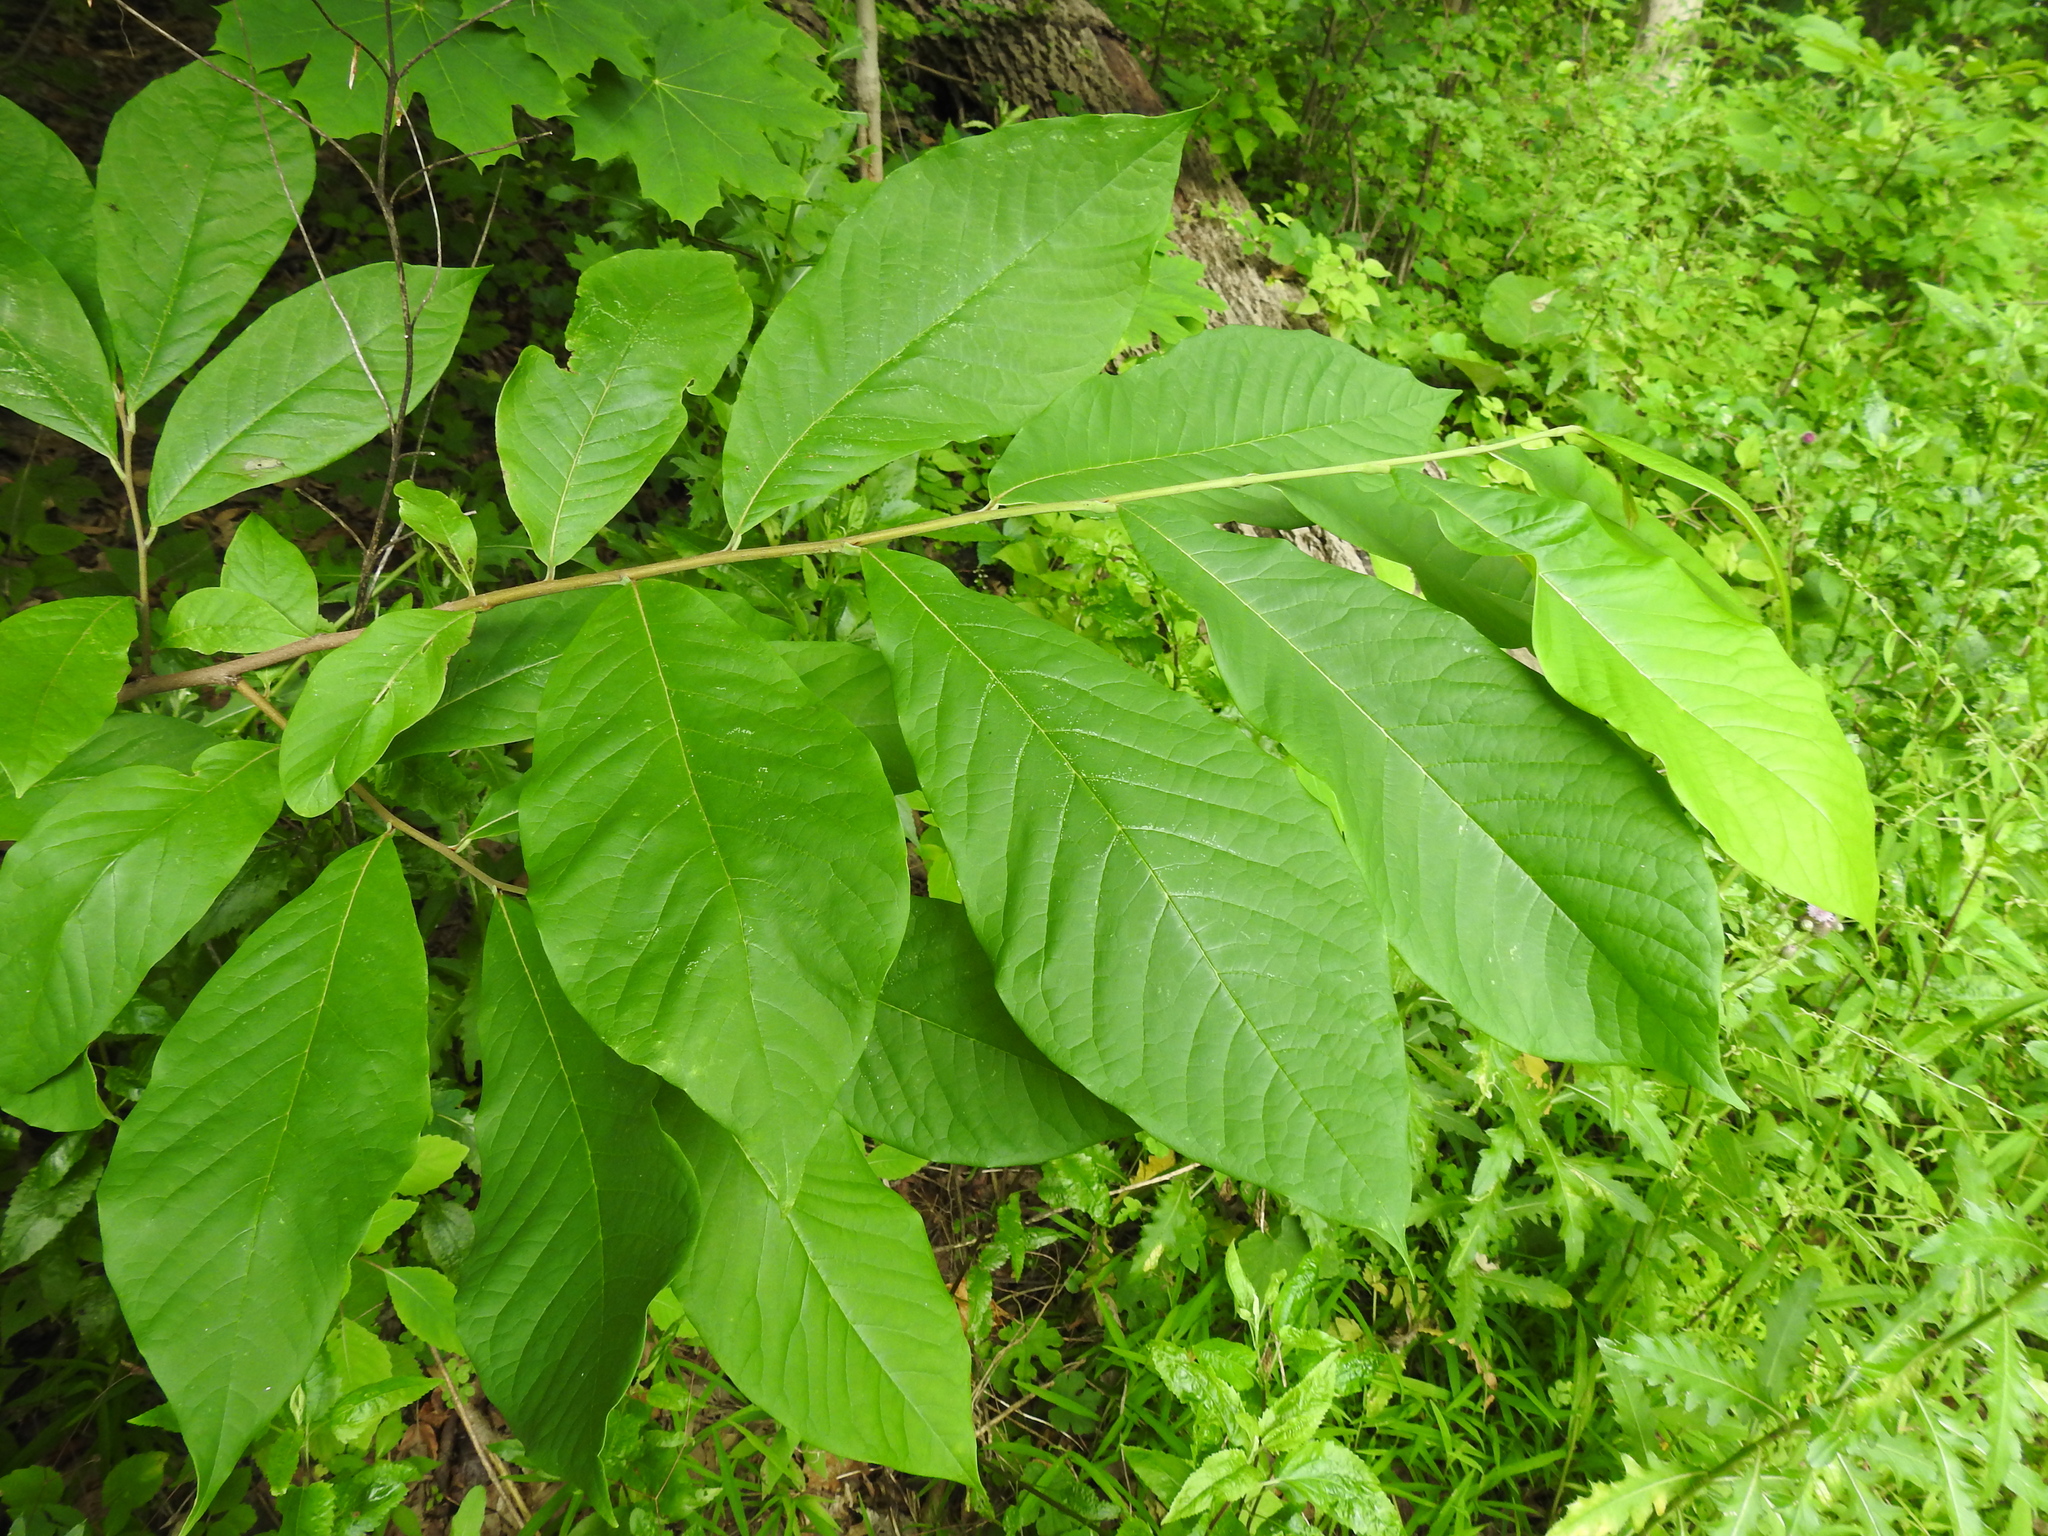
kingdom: Plantae
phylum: Tracheophyta
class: Magnoliopsida
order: Magnoliales
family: Annonaceae
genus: Asimina
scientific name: Asimina triloba
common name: Dog-banana
